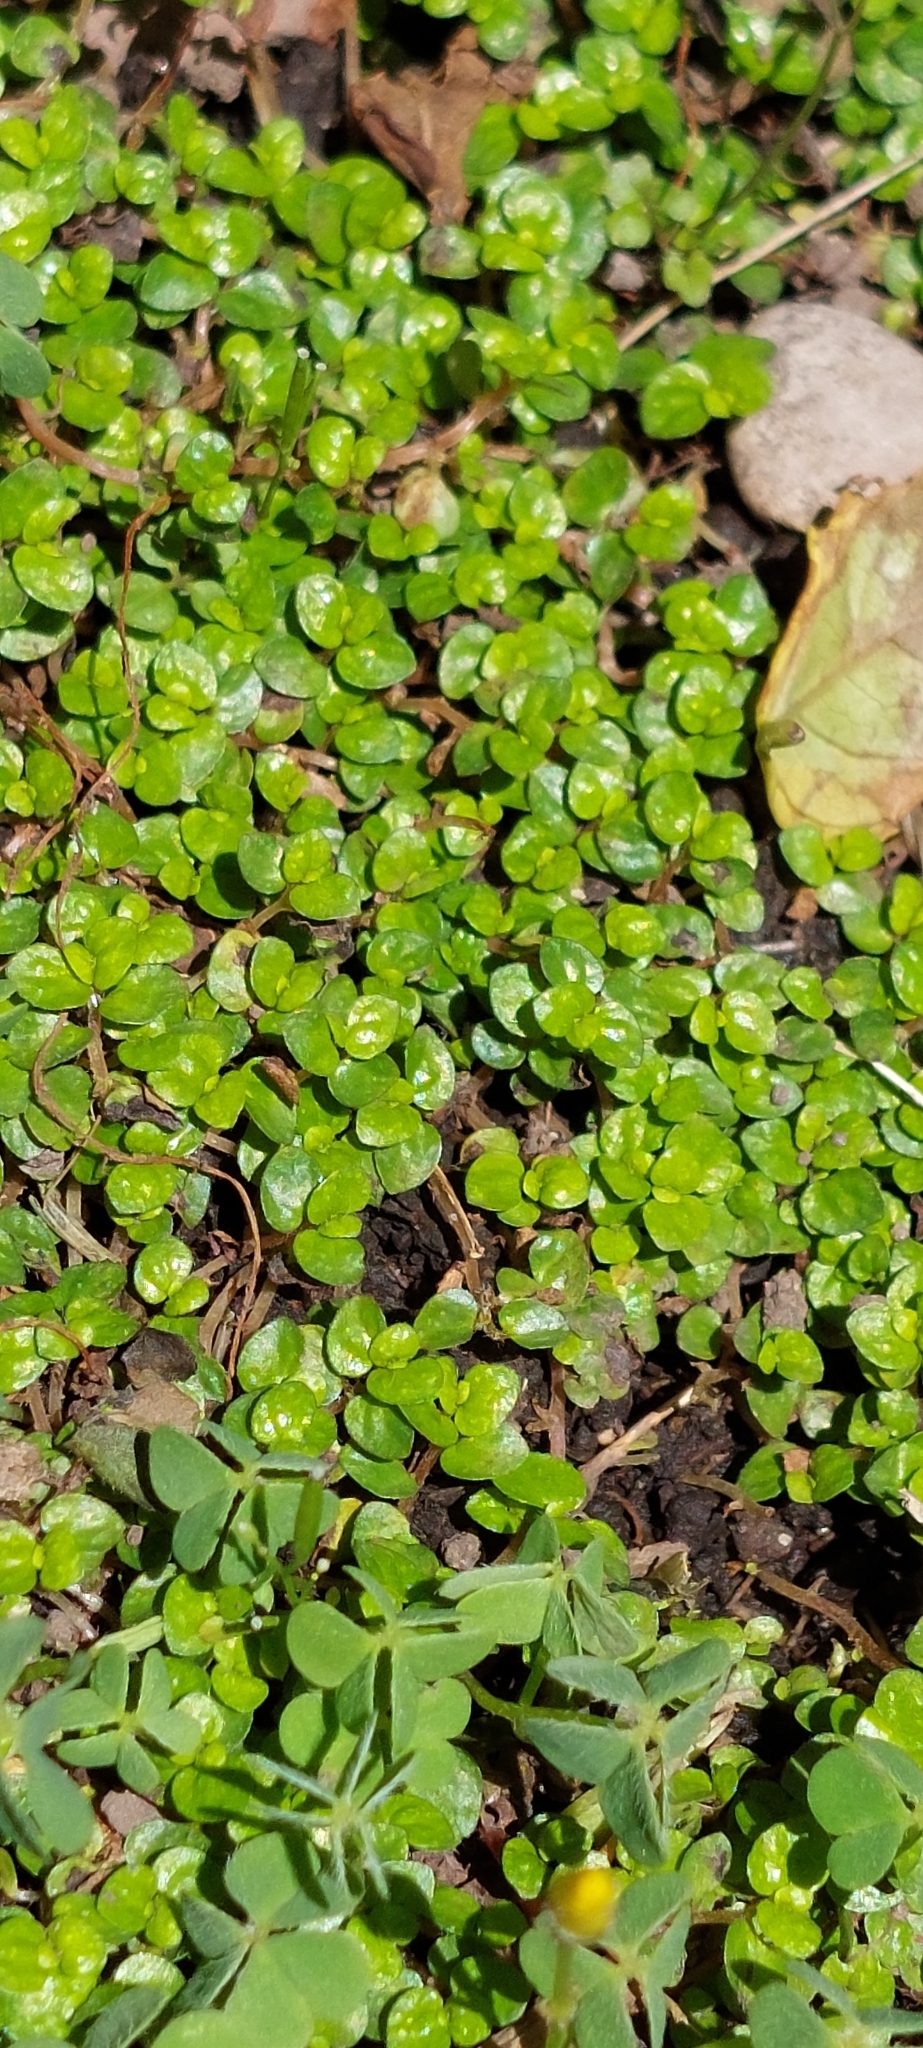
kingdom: Plantae
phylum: Tracheophyta
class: Magnoliopsida
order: Rosales
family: Urticaceae
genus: Soleirolia
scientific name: Soleirolia soleirolii
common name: Mind-your-own-business
